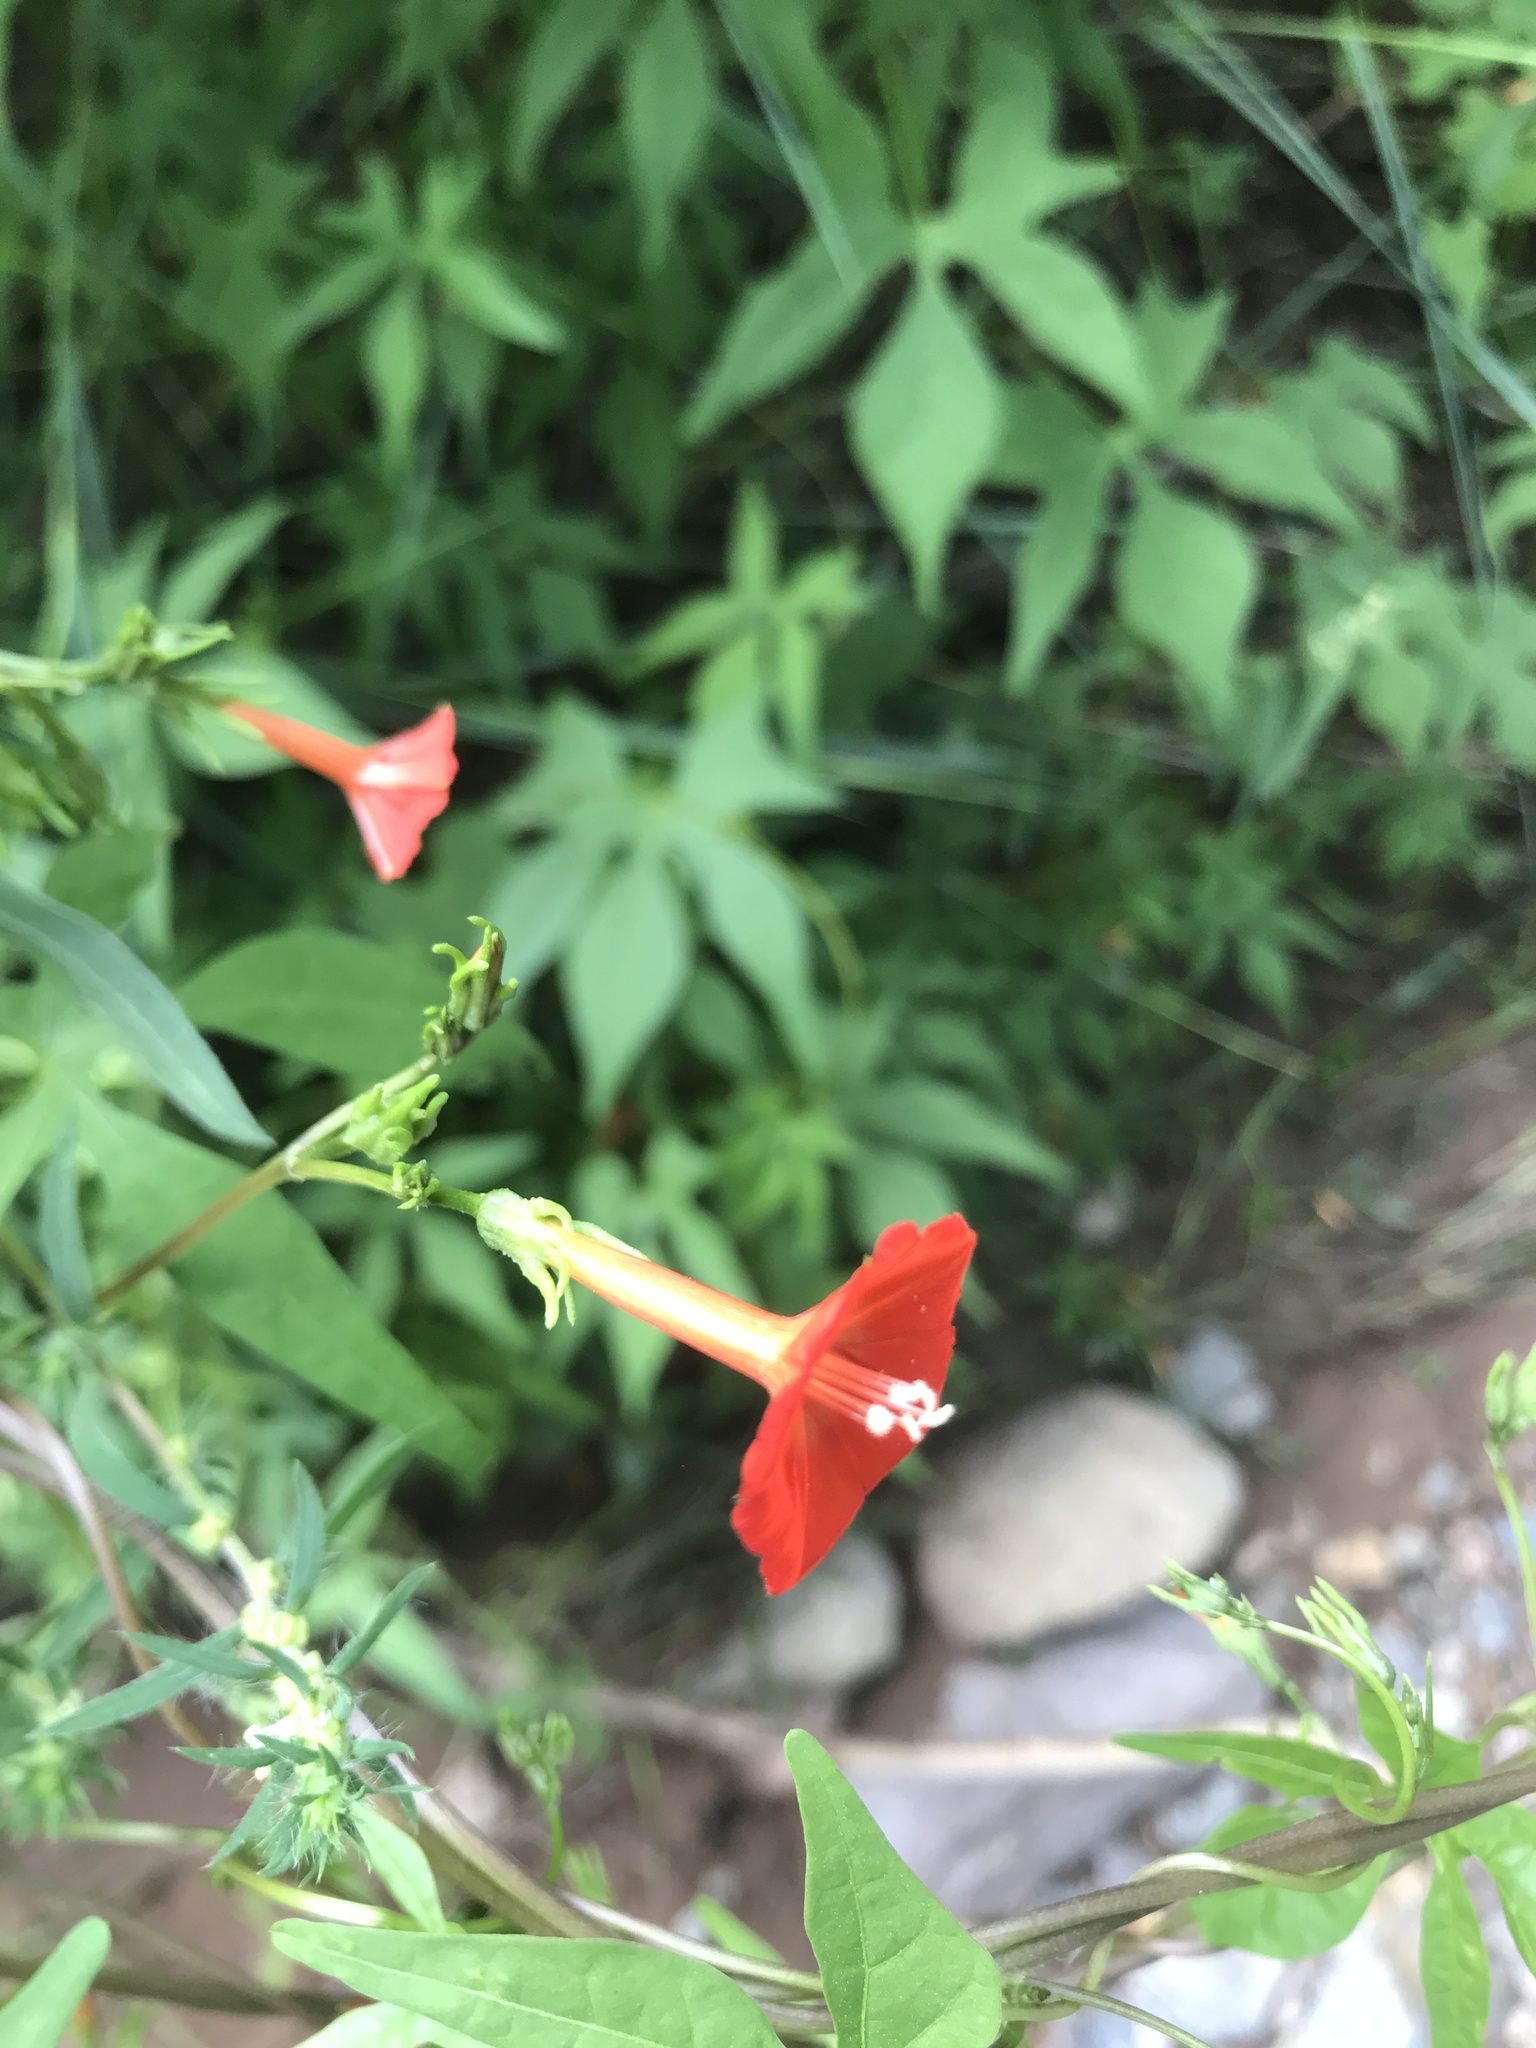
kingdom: Plantae
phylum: Tracheophyta
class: Magnoliopsida
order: Solanales
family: Convolvulaceae
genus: Ipomoea
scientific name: Ipomoea cristulata
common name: Trans-pecos morning-glory
